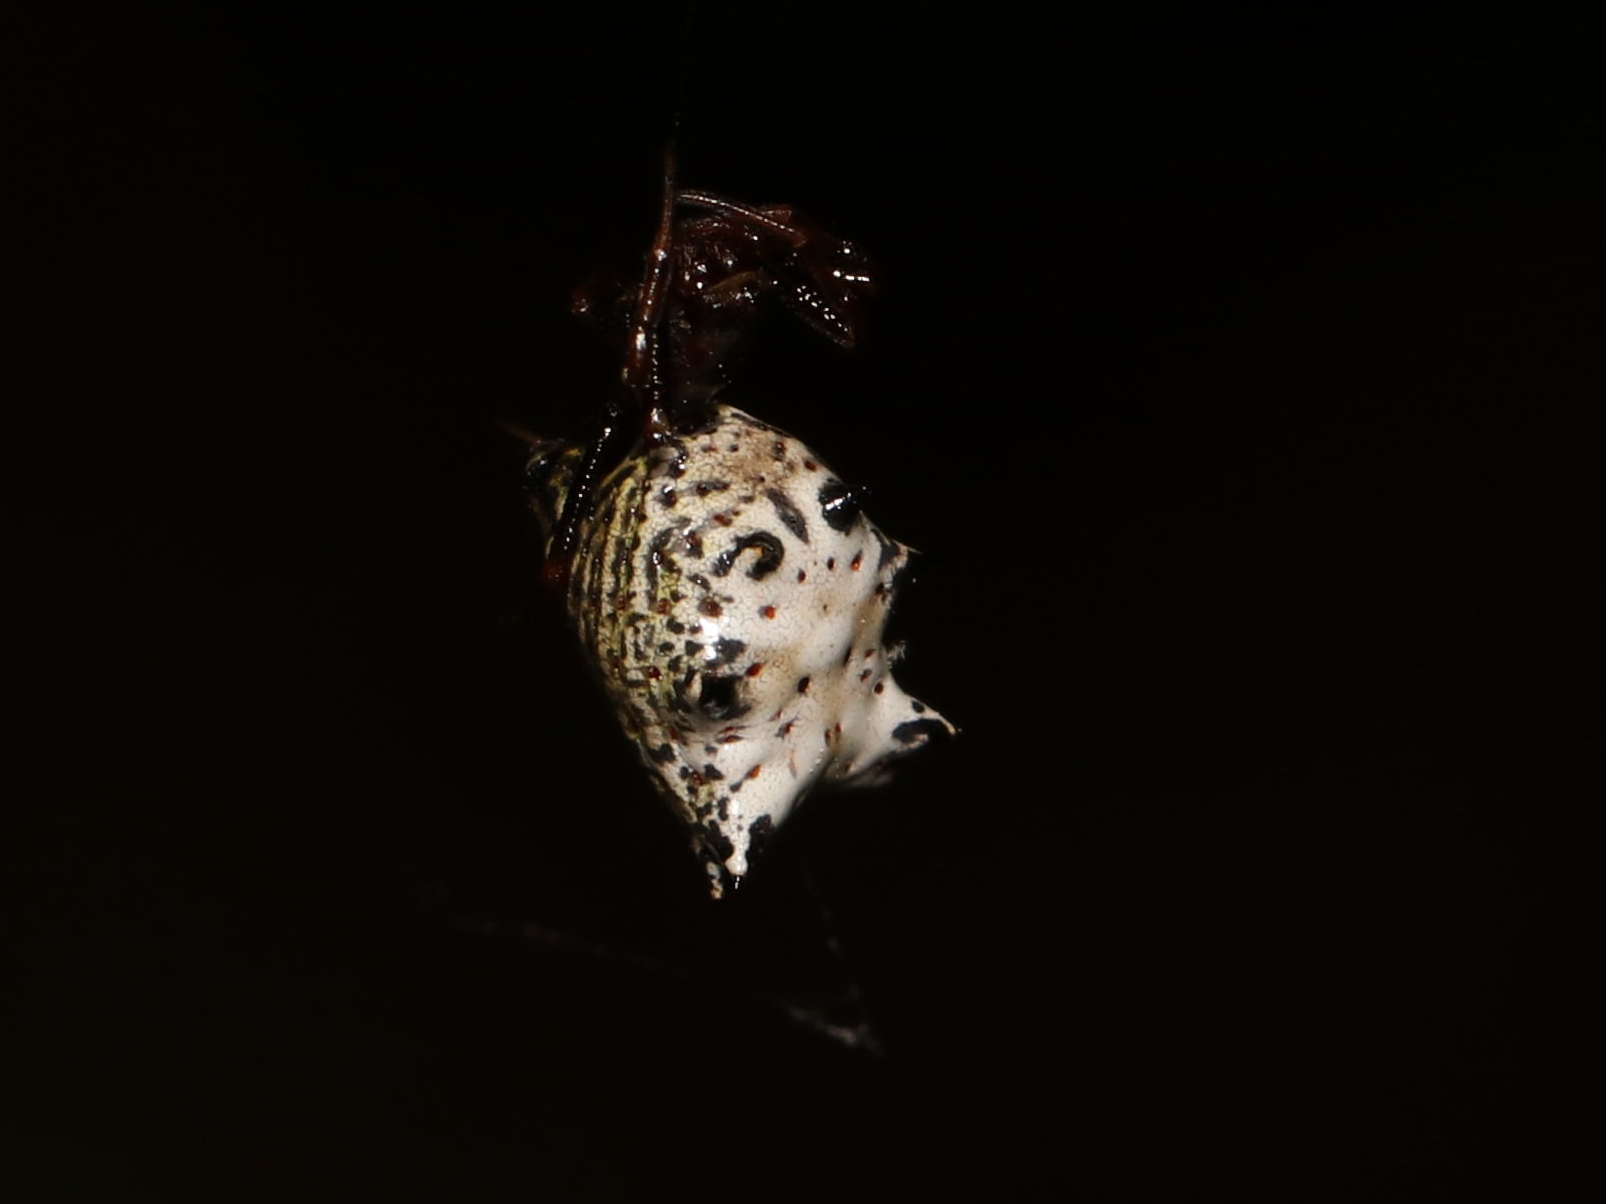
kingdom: Animalia
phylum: Arthropoda
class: Arachnida
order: Araneae
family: Araneidae
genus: Micrathena
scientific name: Micrathena gracilis
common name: Orb weavers
